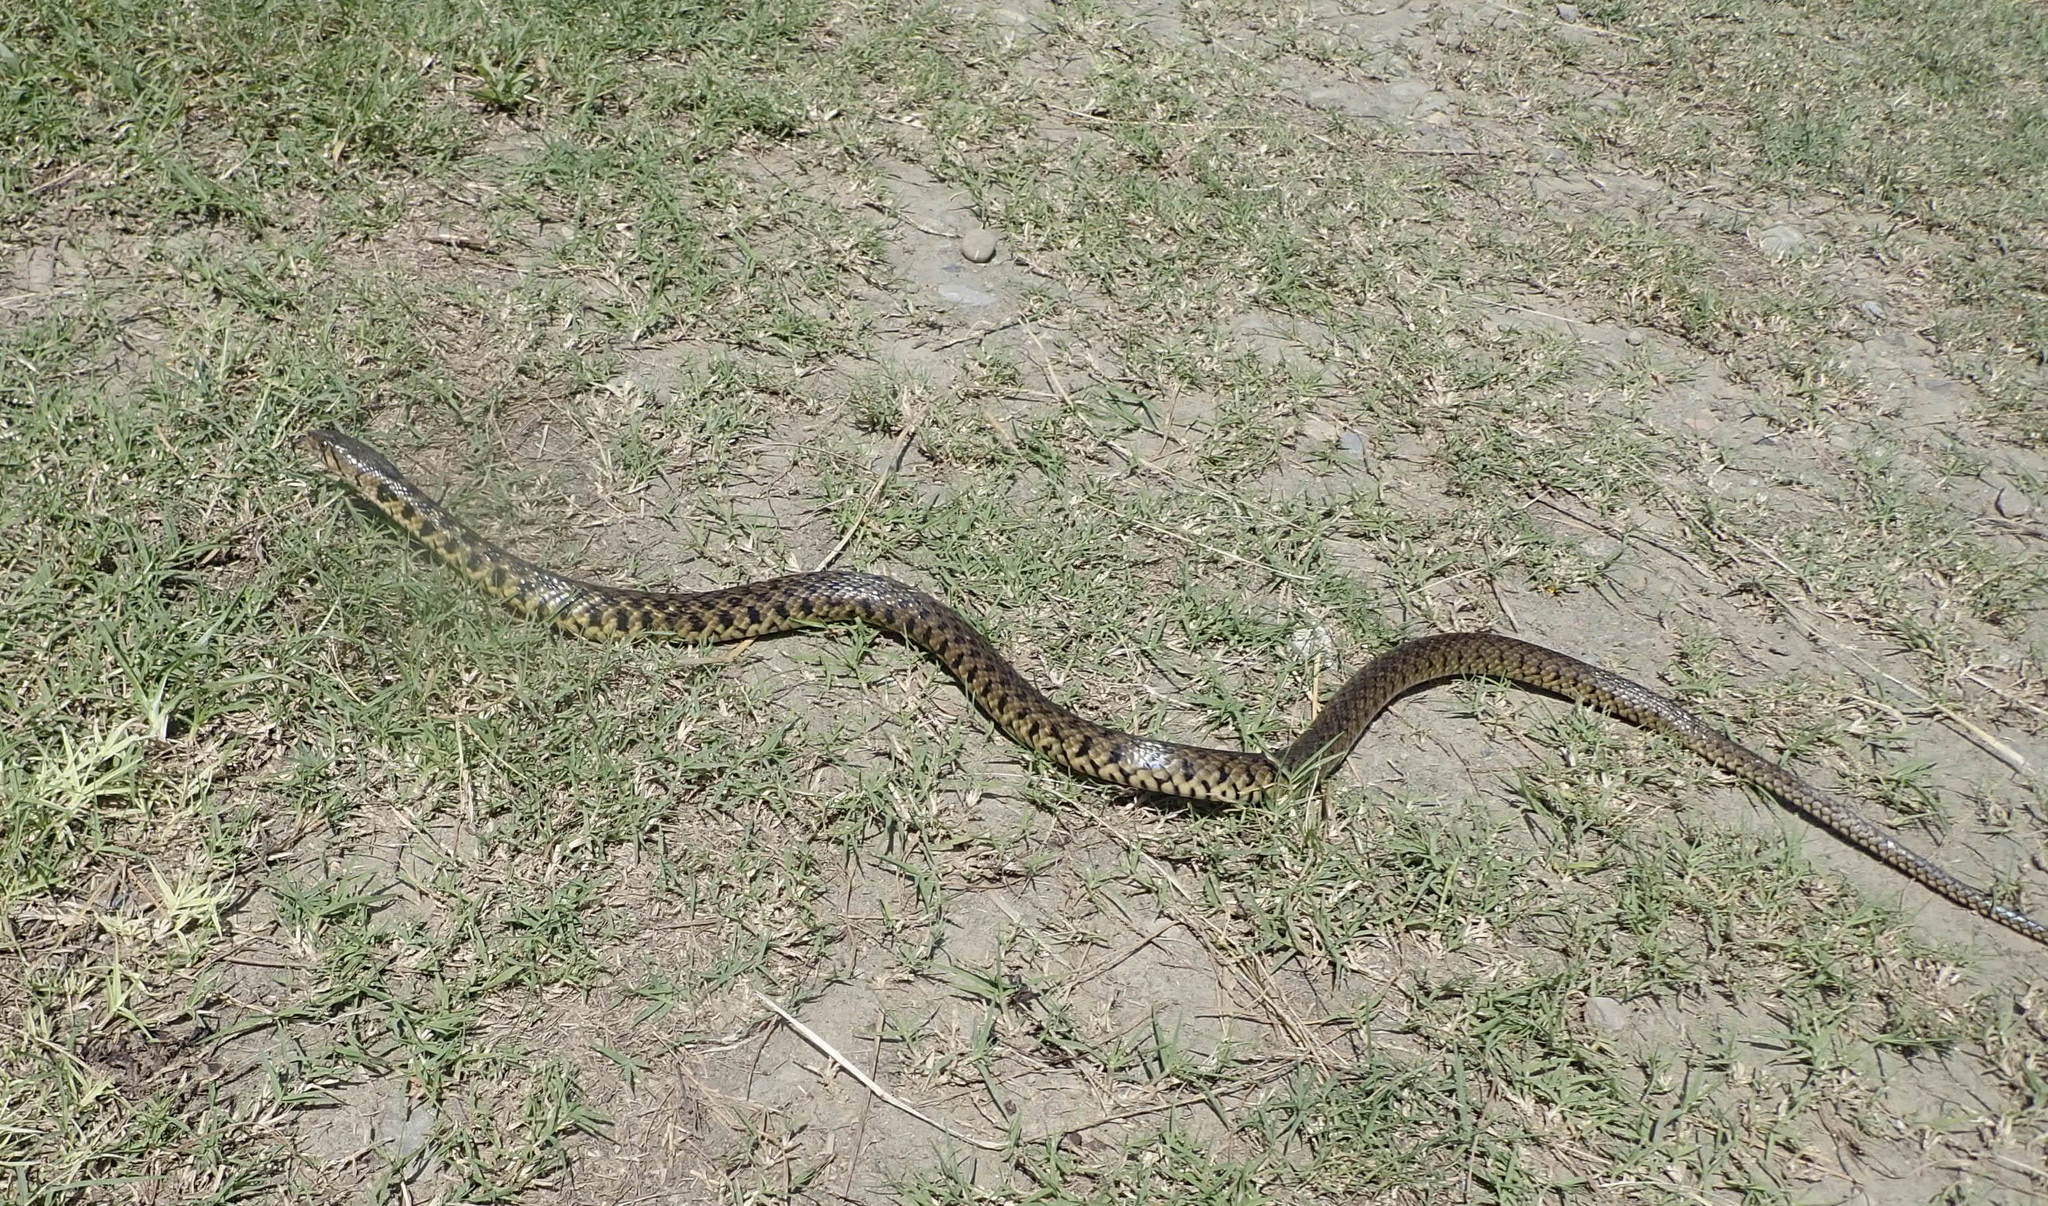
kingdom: Animalia
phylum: Chordata
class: Squamata
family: Colubridae
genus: Fowlea
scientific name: Fowlea flavipunctatus
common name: Yellow-spotted keelback
